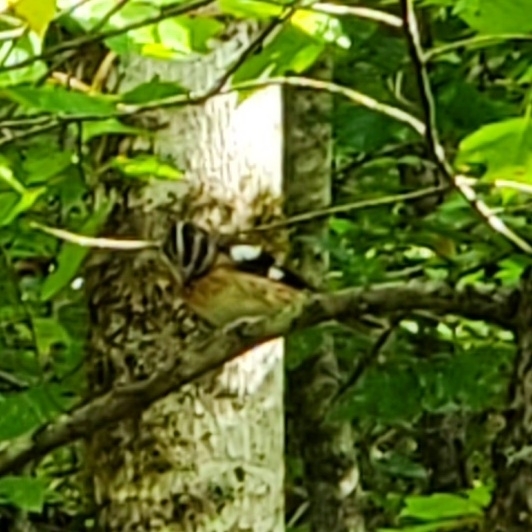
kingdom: Animalia
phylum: Chordata
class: Aves
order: Passeriformes
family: Cardinalidae
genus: Pheucticus
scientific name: Pheucticus ludovicianus
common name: Rose-breasted grosbeak
